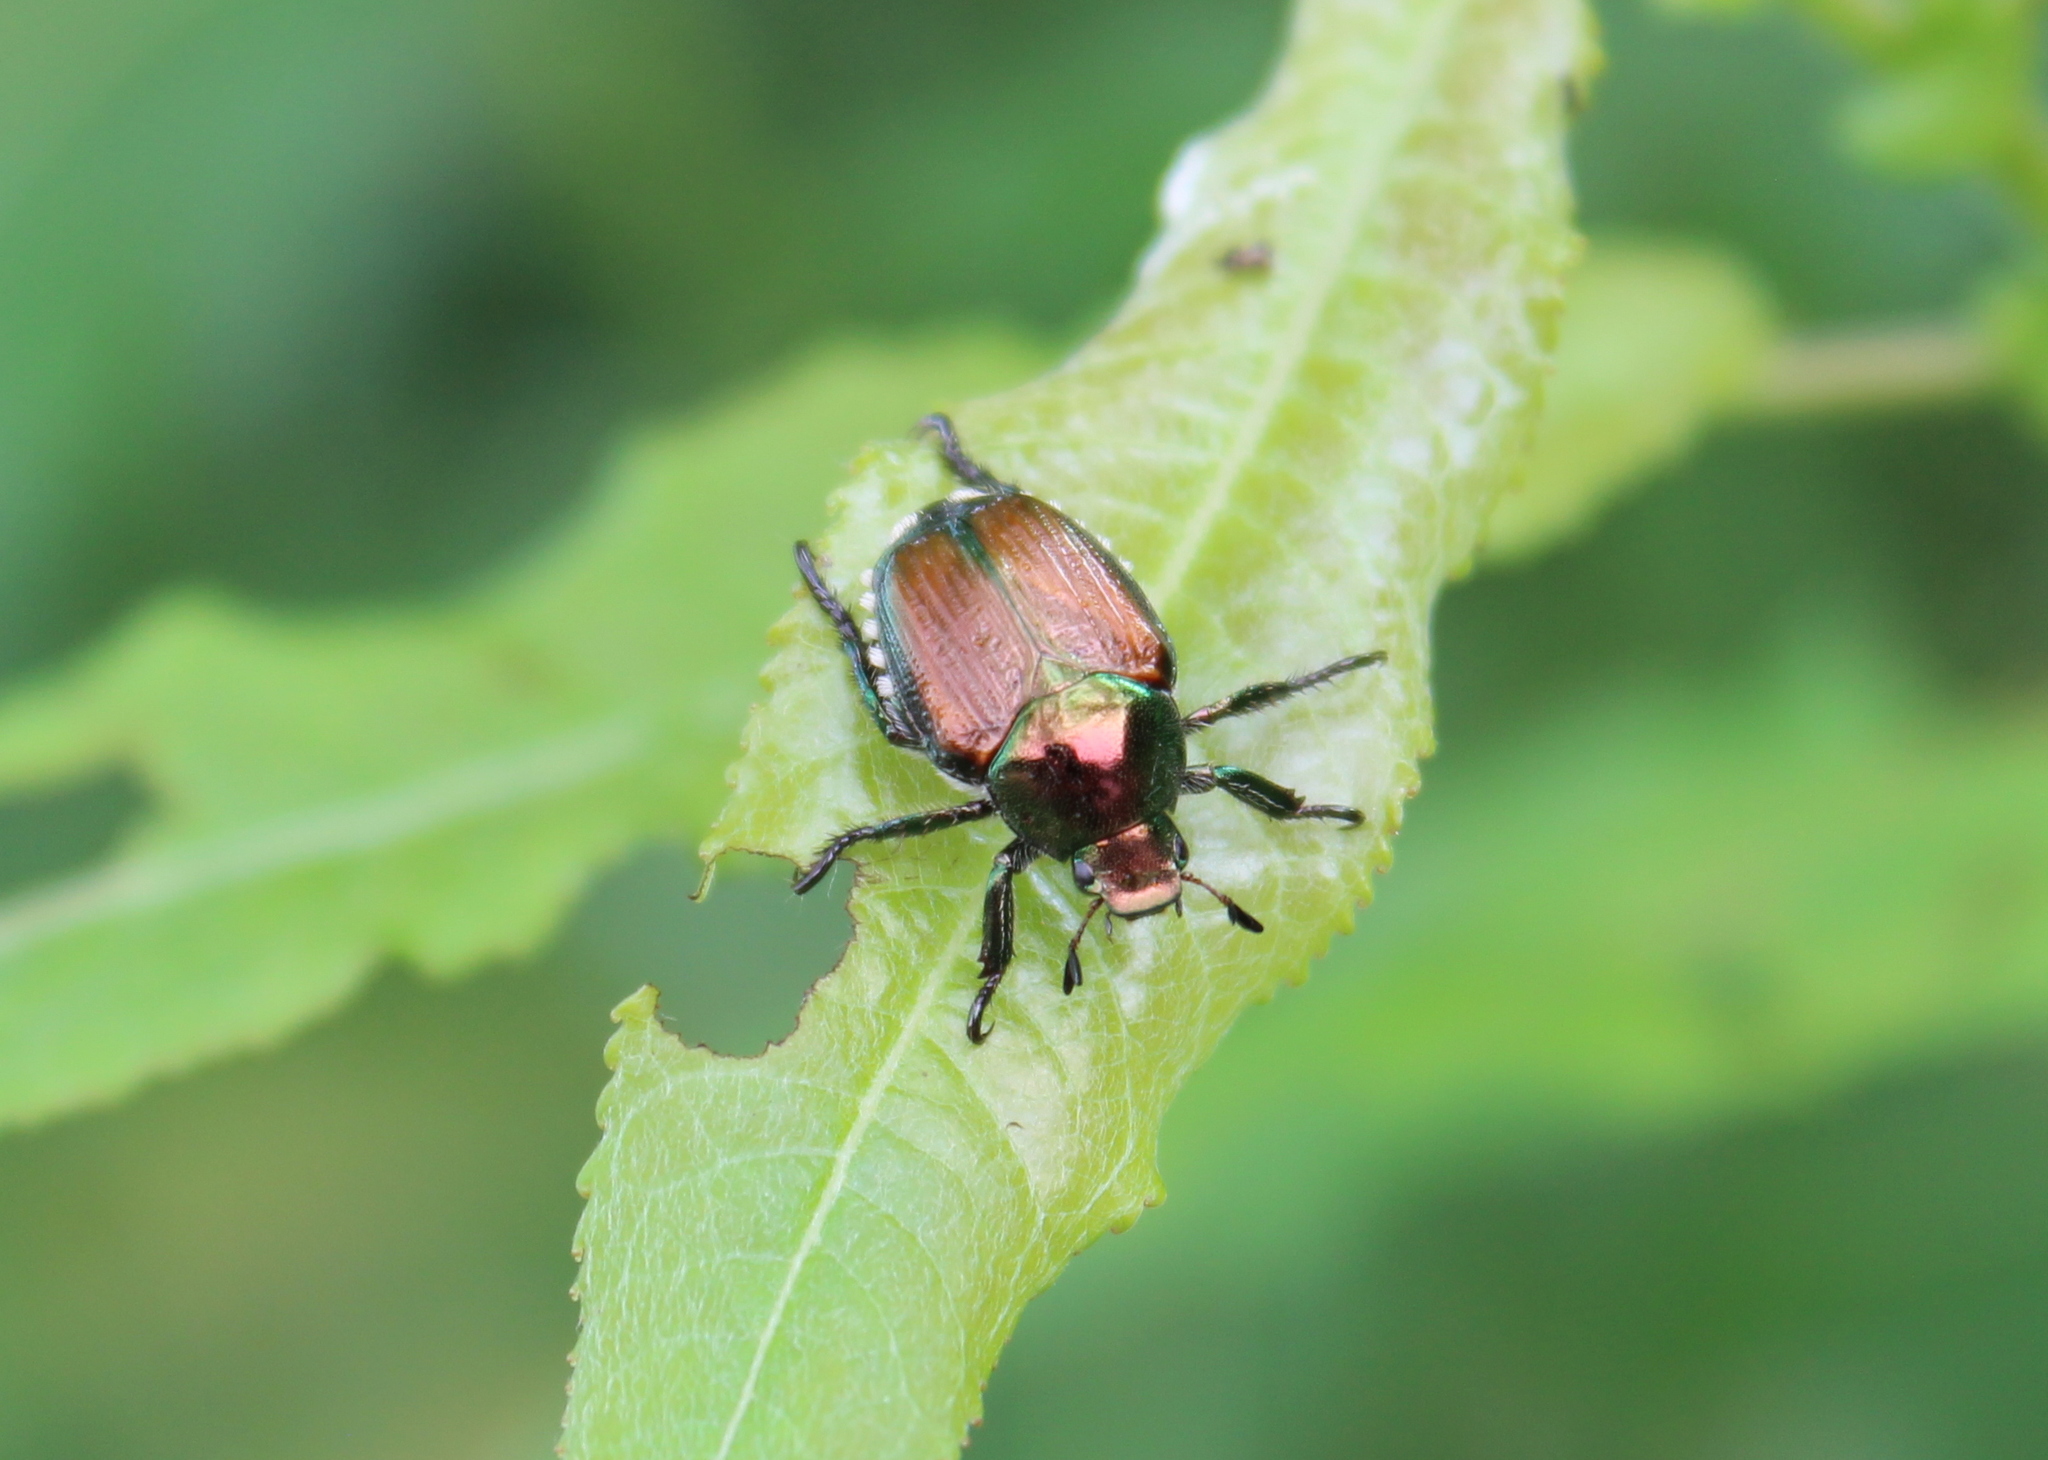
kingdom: Animalia
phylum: Arthropoda
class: Insecta
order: Coleoptera
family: Scarabaeidae
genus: Popillia
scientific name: Popillia japonica
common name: Japanese beetle
